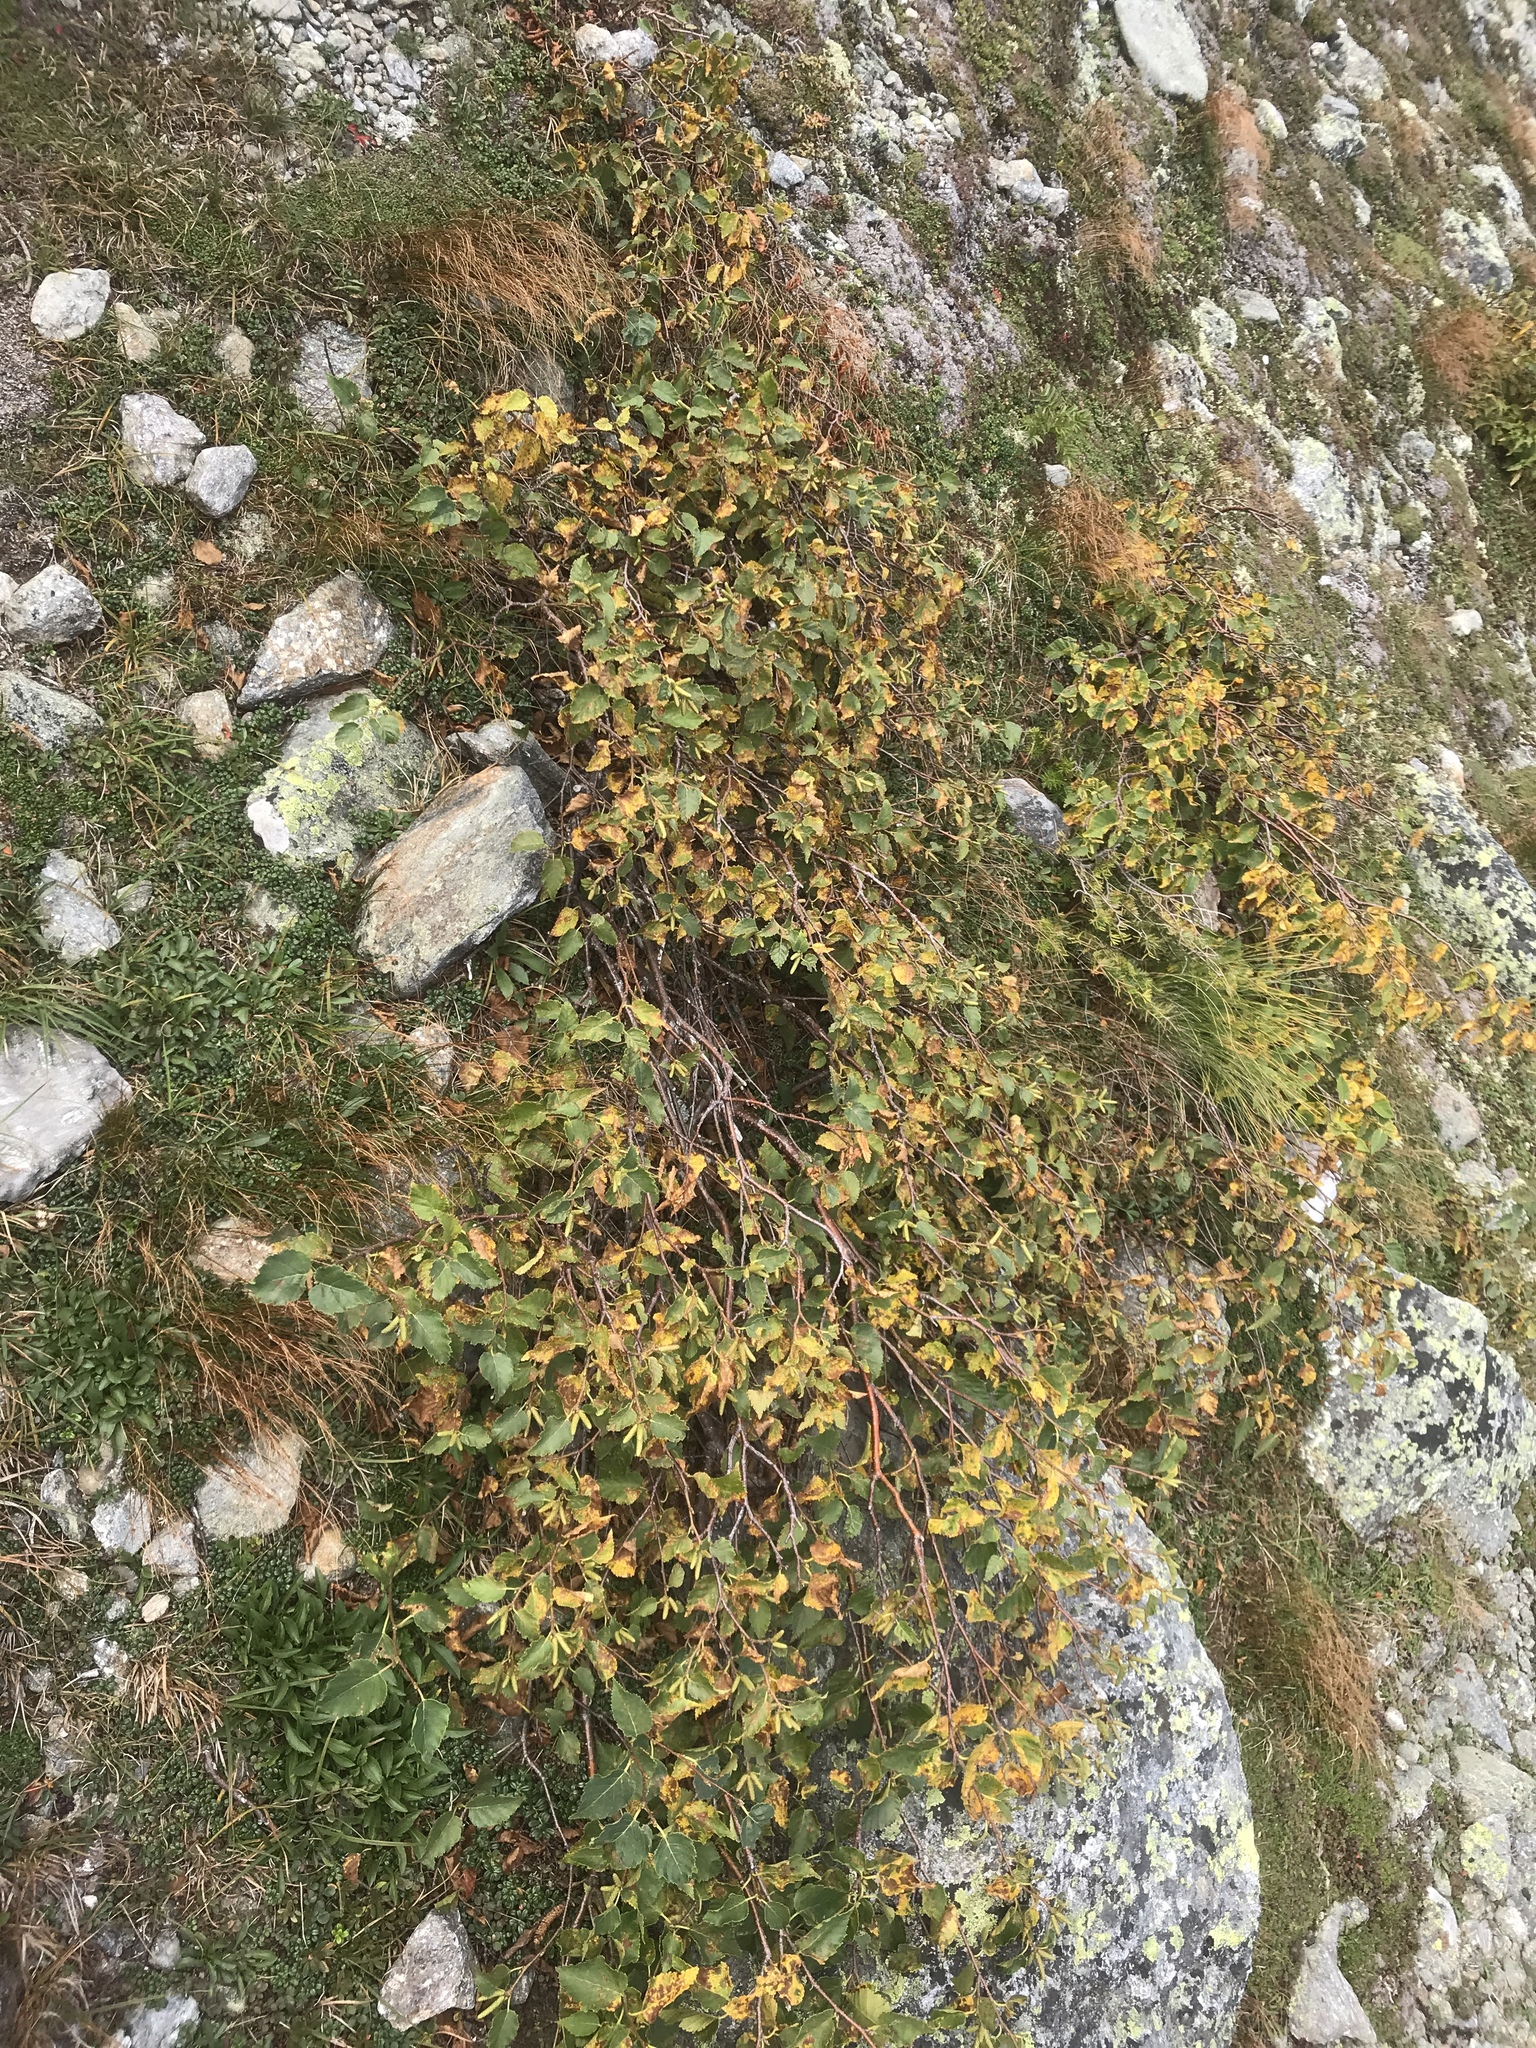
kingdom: Plantae
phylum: Tracheophyta
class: Magnoliopsida
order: Fagales
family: Betulaceae
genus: Betula
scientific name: Betula cordifolia
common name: Mountain white birch
